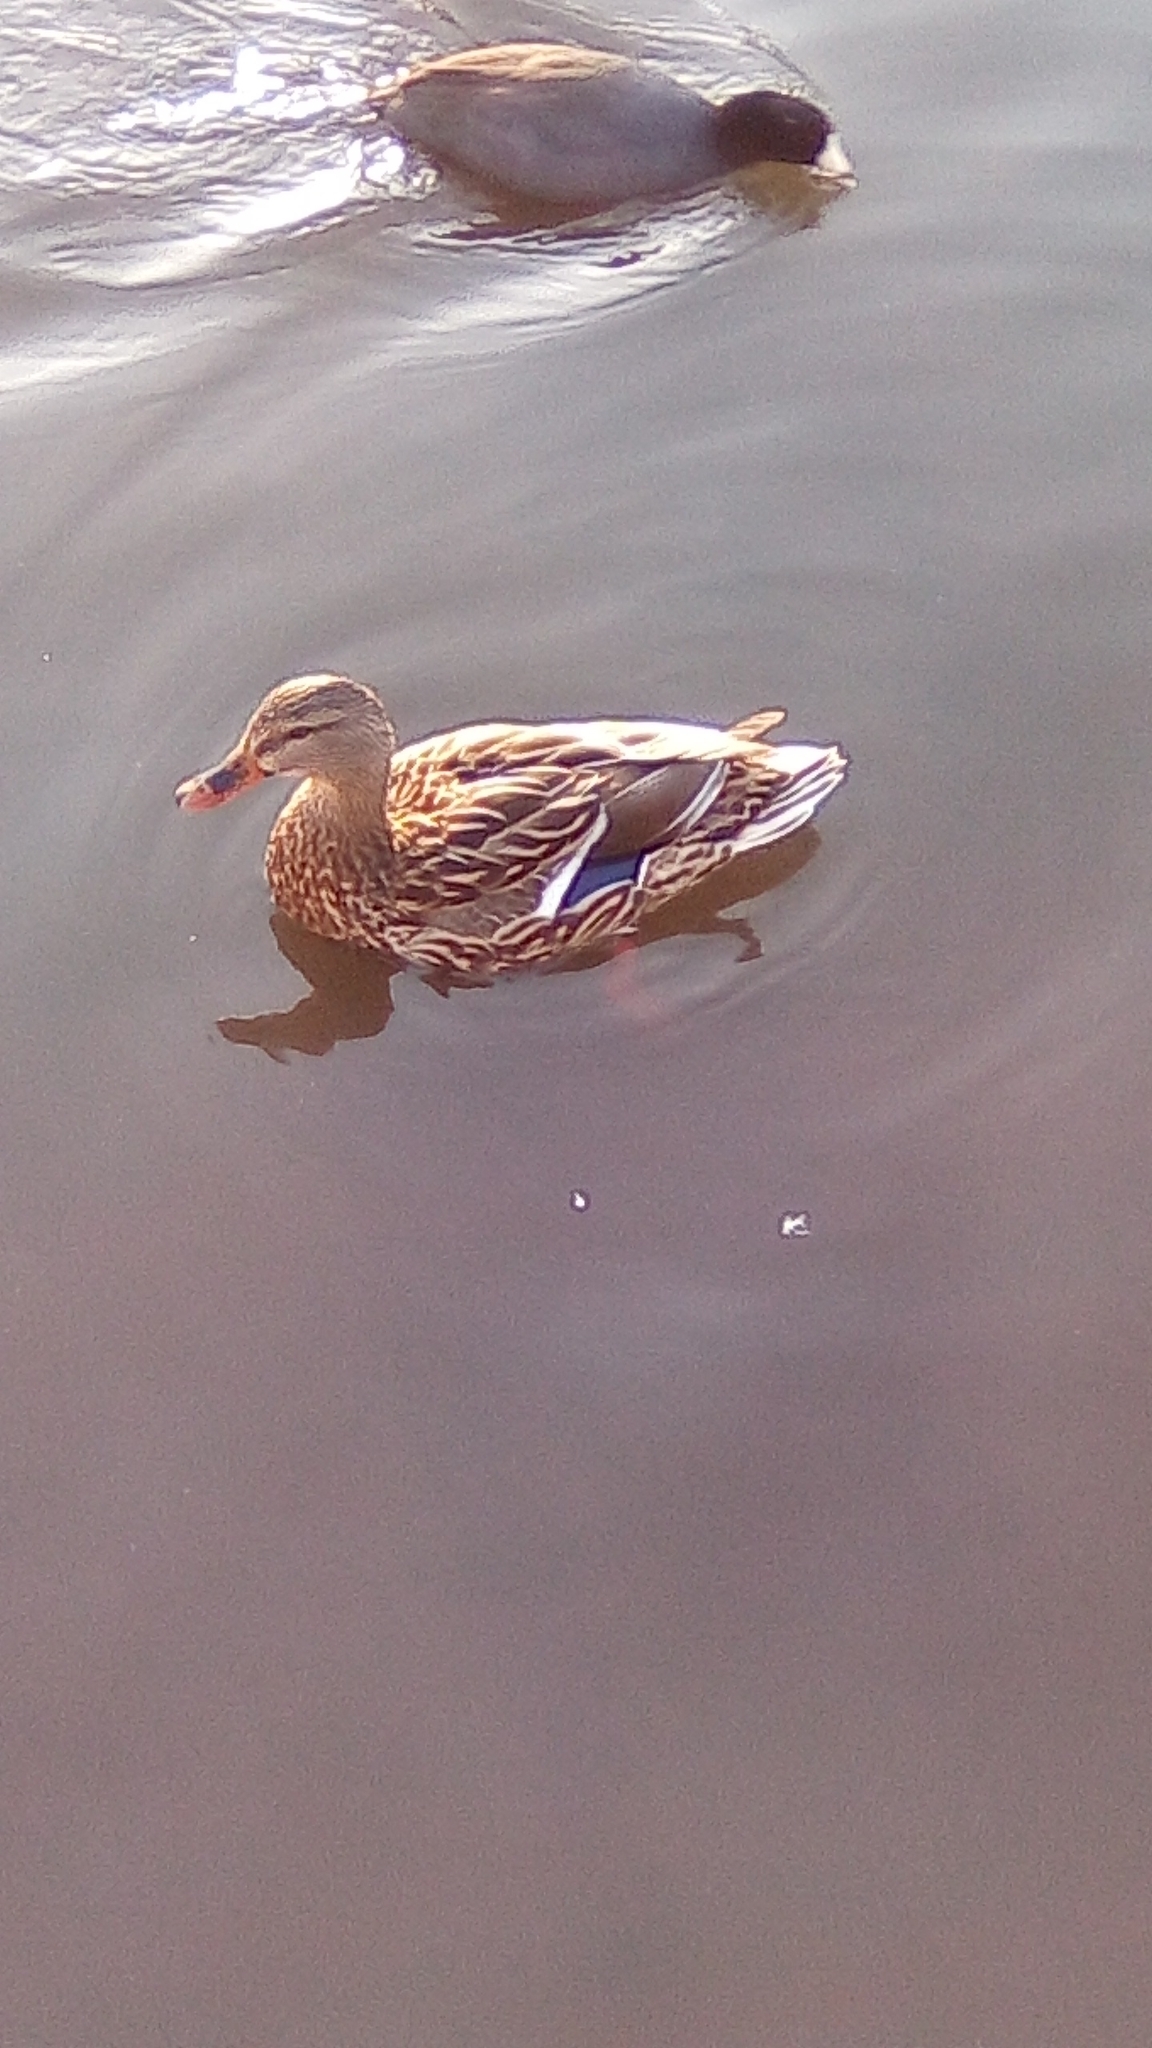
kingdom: Animalia
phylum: Chordata
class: Aves
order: Anseriformes
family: Anatidae
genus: Anas
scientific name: Anas platyrhynchos
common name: Mallard
